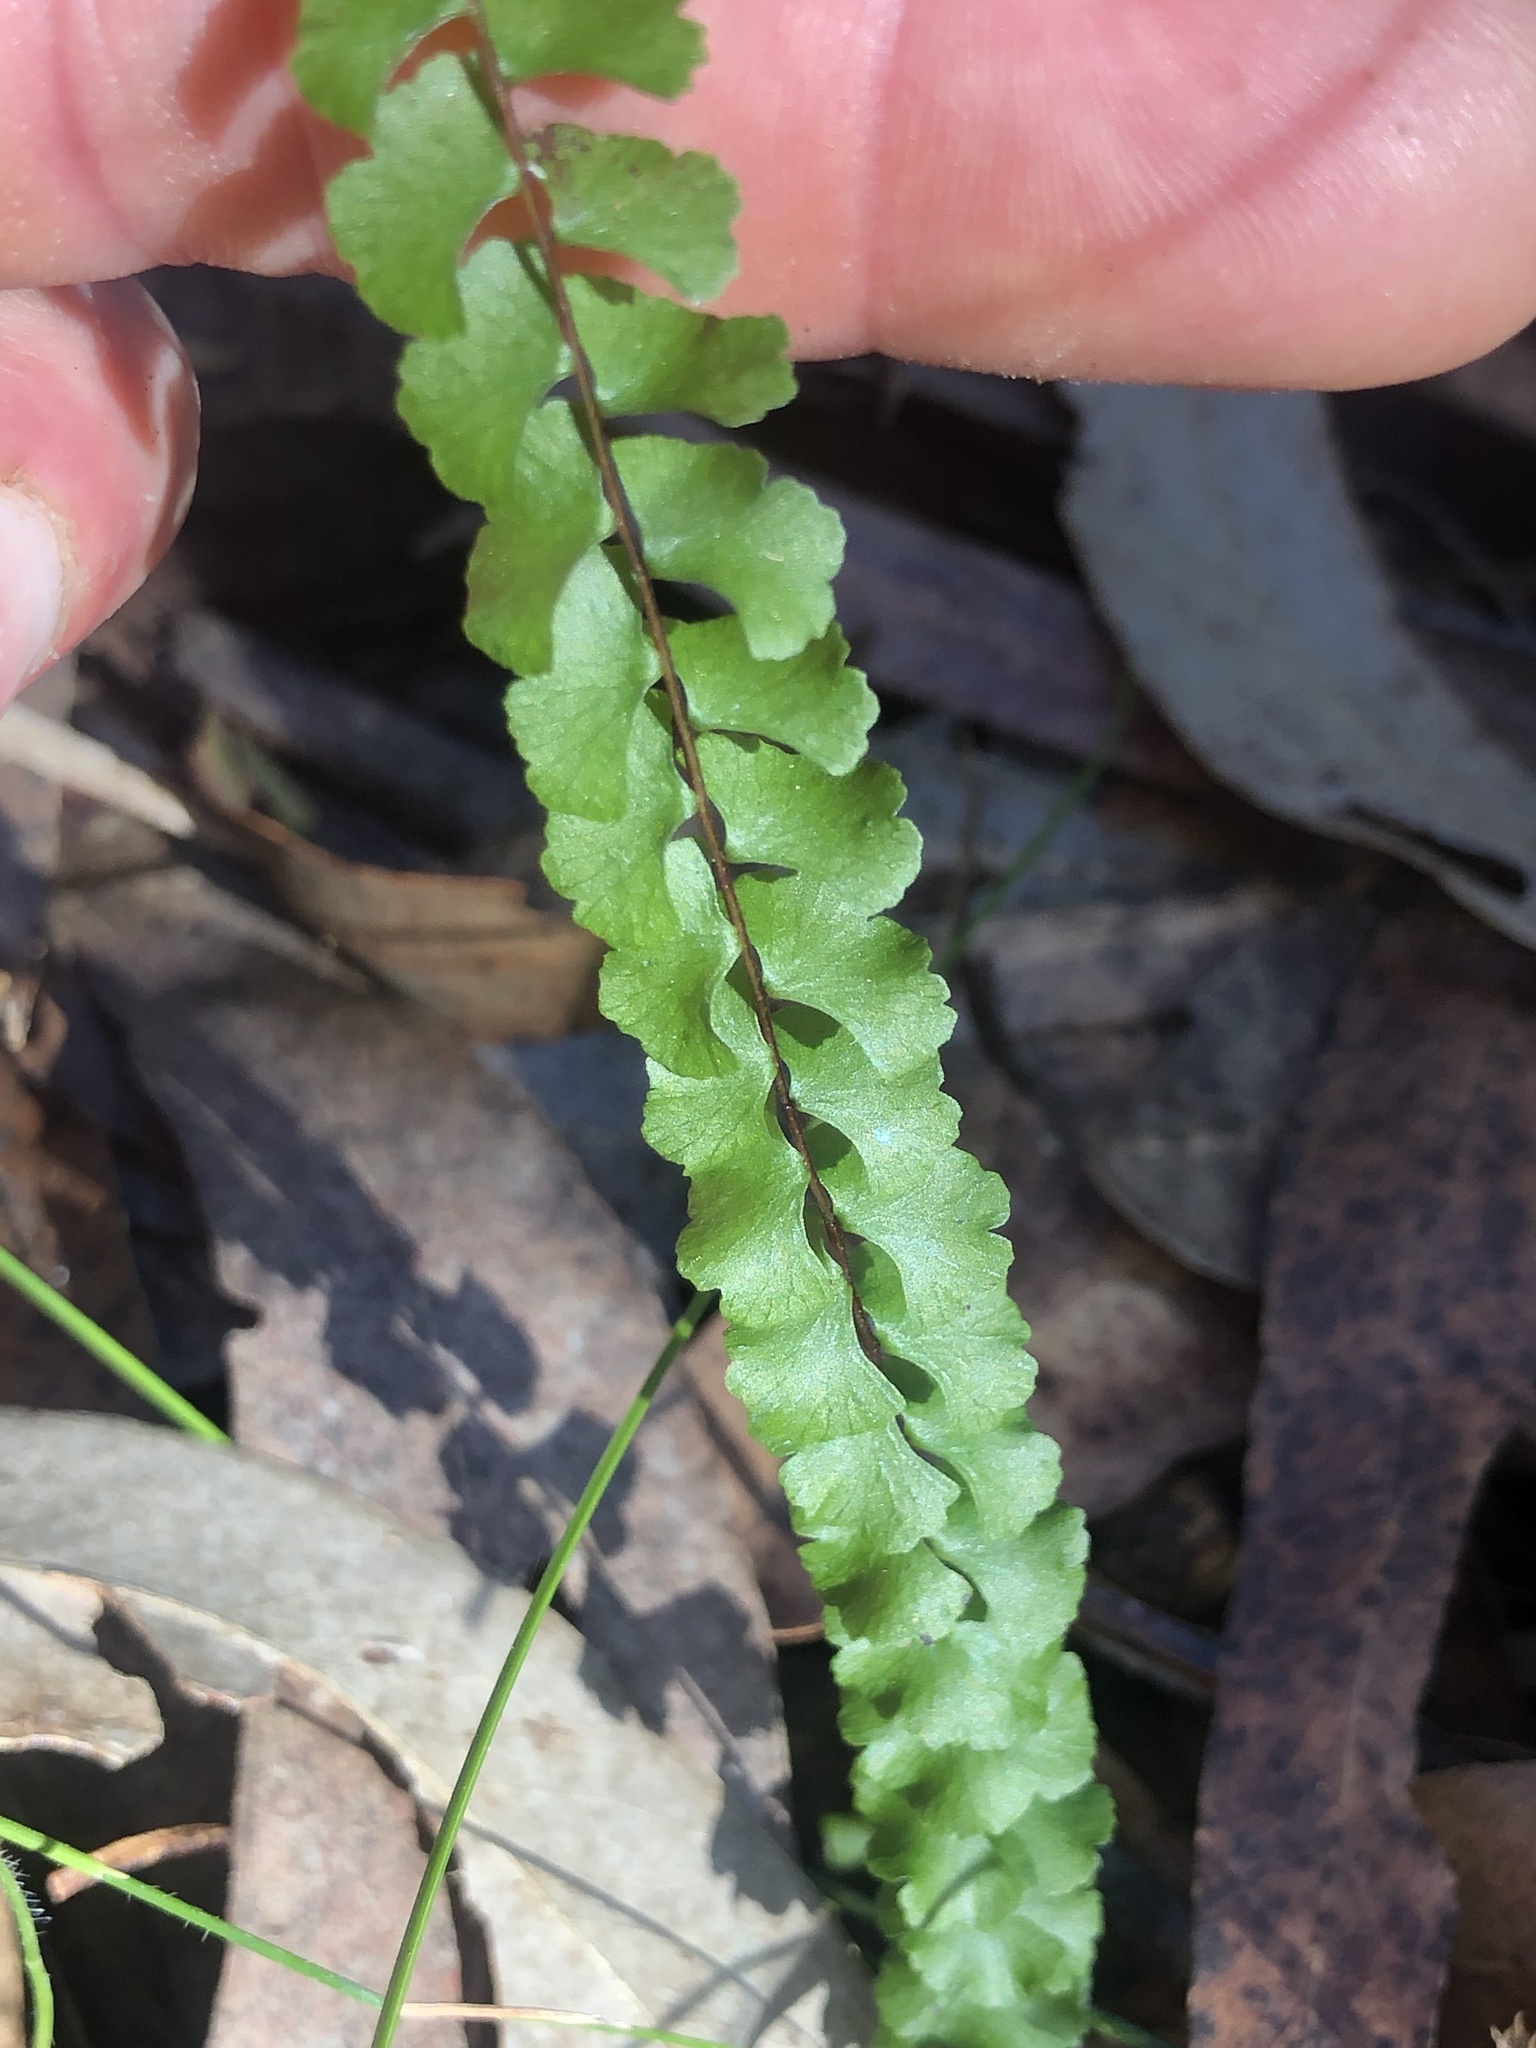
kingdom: Plantae
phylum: Tracheophyta
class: Polypodiopsida
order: Polypodiales
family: Lindsaeaceae
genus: Lindsaea
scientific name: Lindsaea linearis
